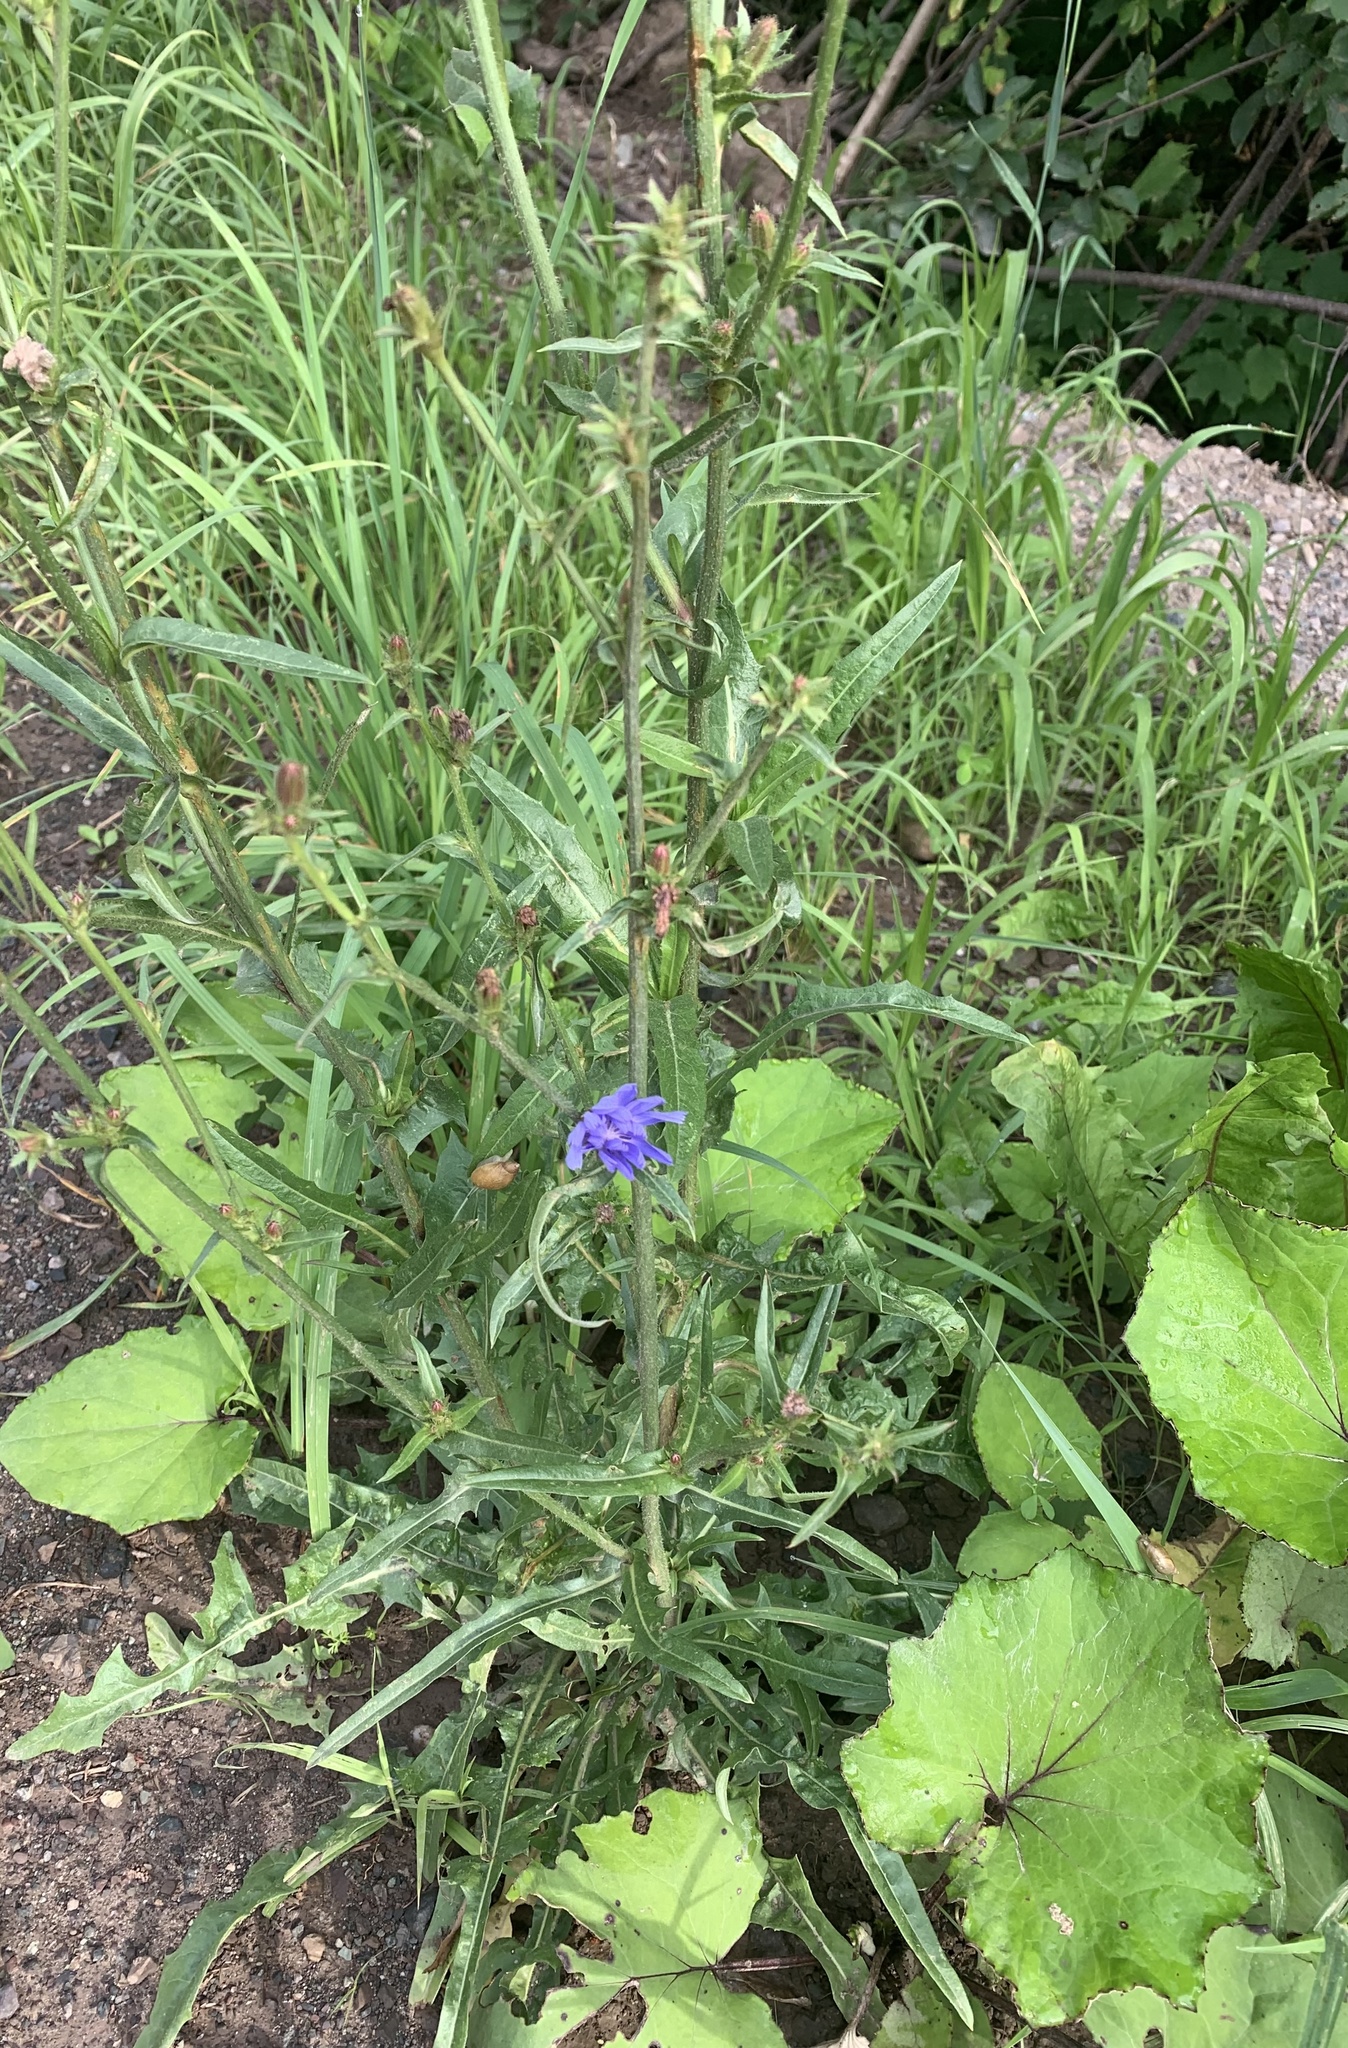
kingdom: Plantae
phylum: Tracheophyta
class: Magnoliopsida
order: Asterales
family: Asteraceae
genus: Cichorium
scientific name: Cichorium intybus
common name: Chicory
